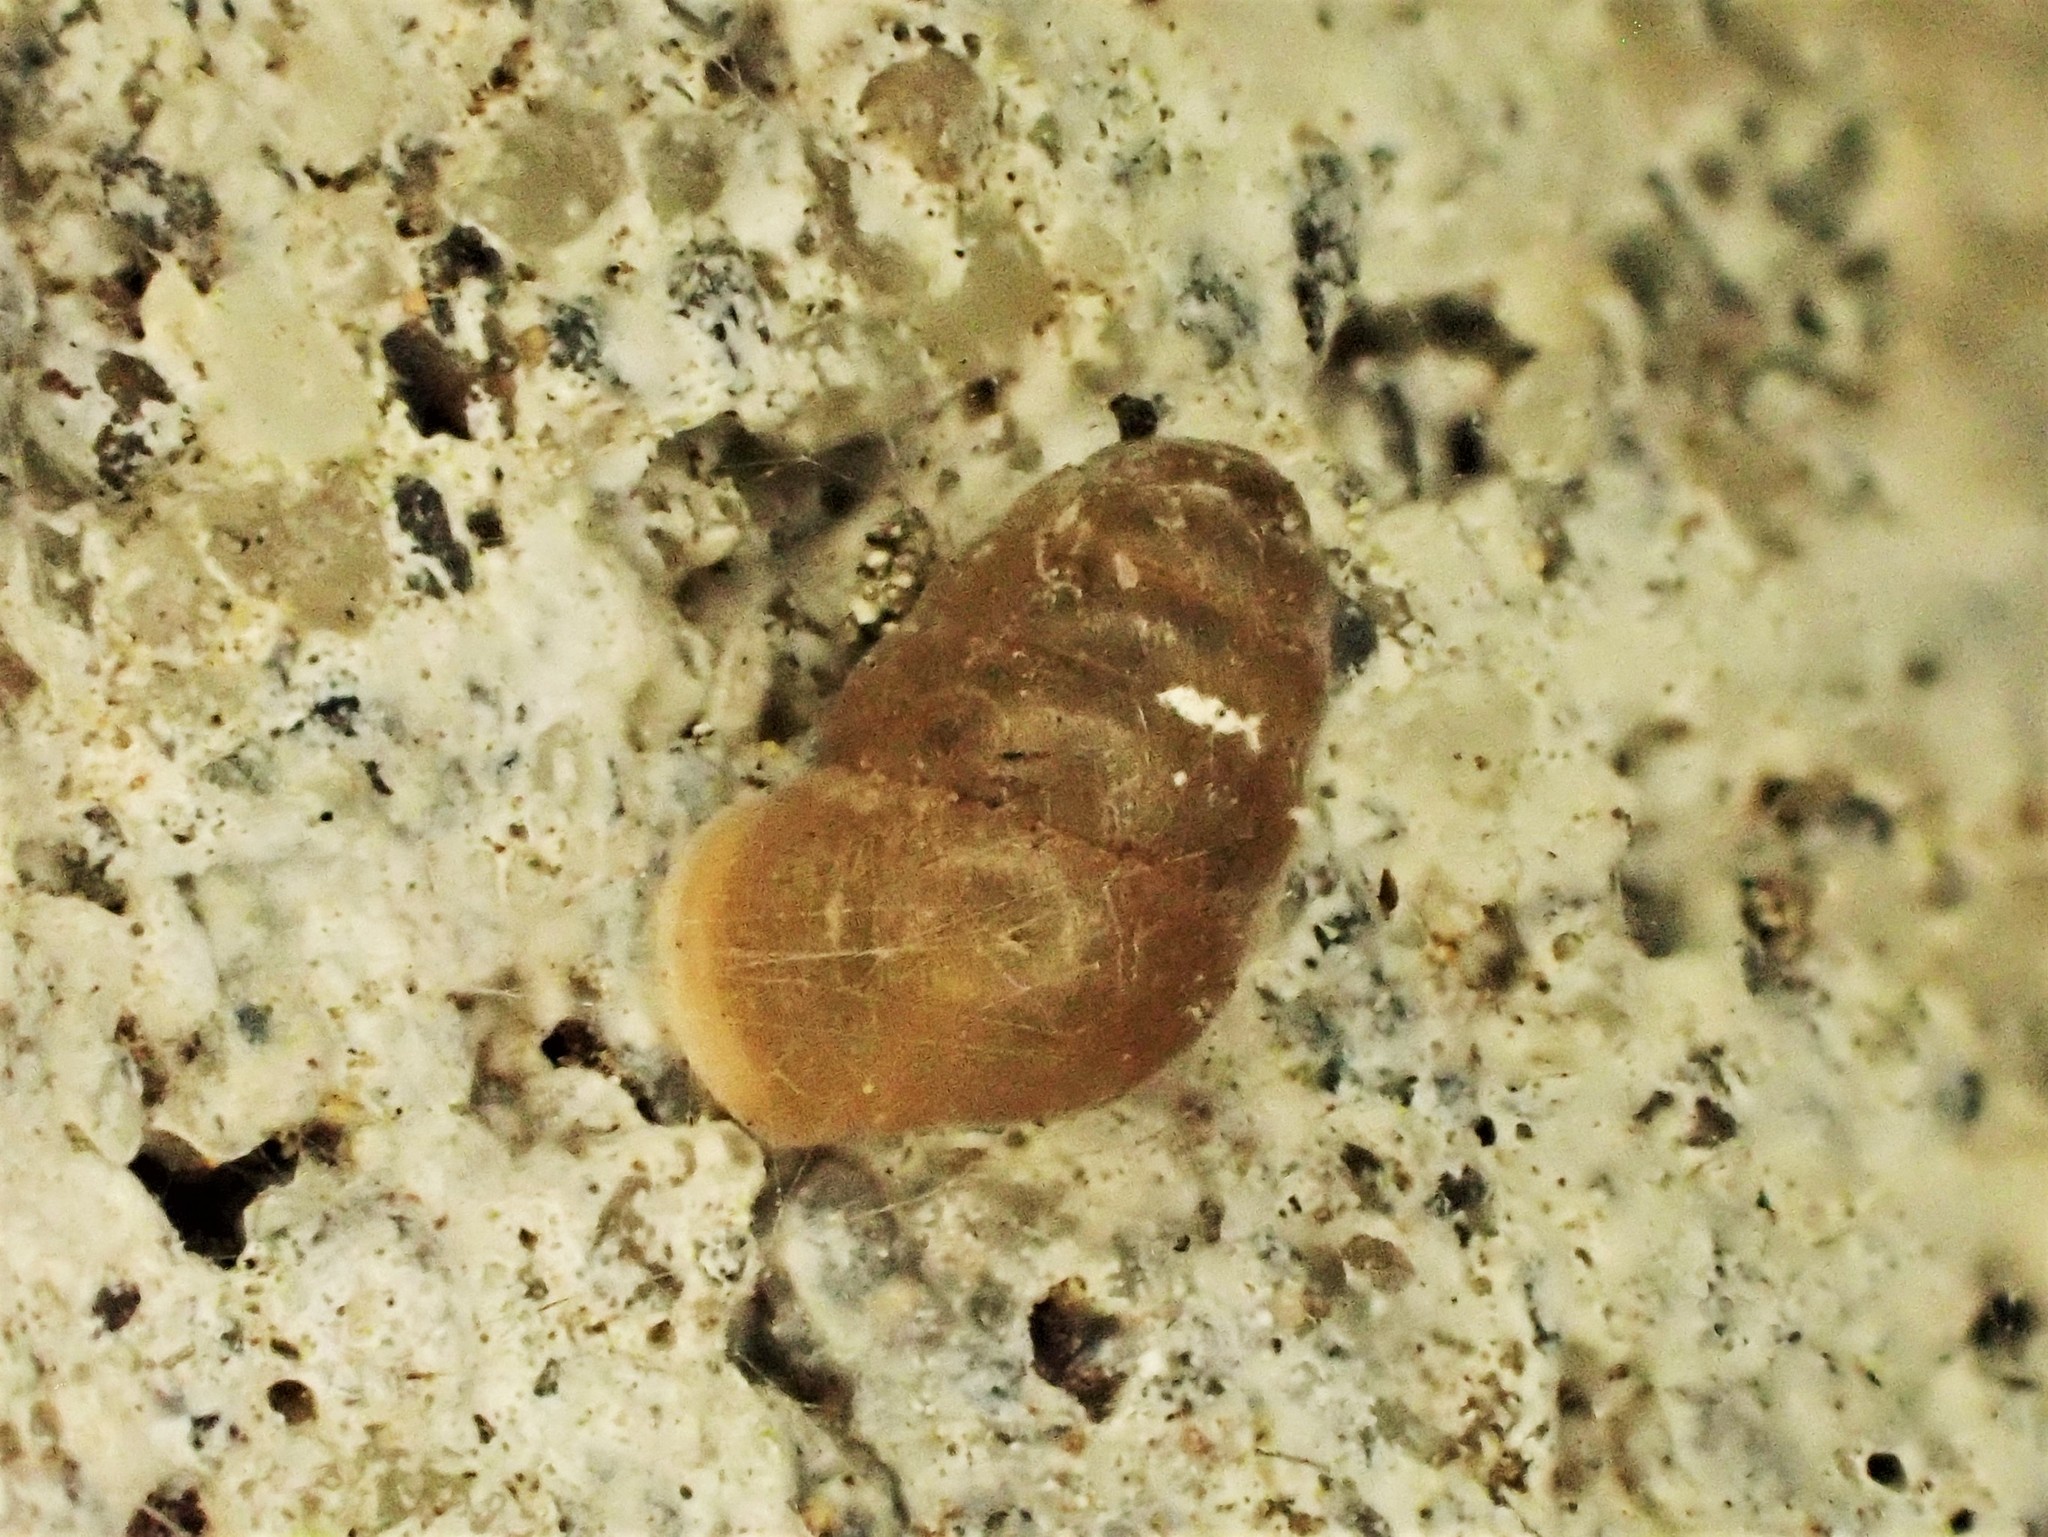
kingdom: Animalia
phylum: Mollusca
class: Gastropoda
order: Stylommatophora
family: Lauriidae
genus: Lauria
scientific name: Lauria cylindracea
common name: Common chrysalis snail
